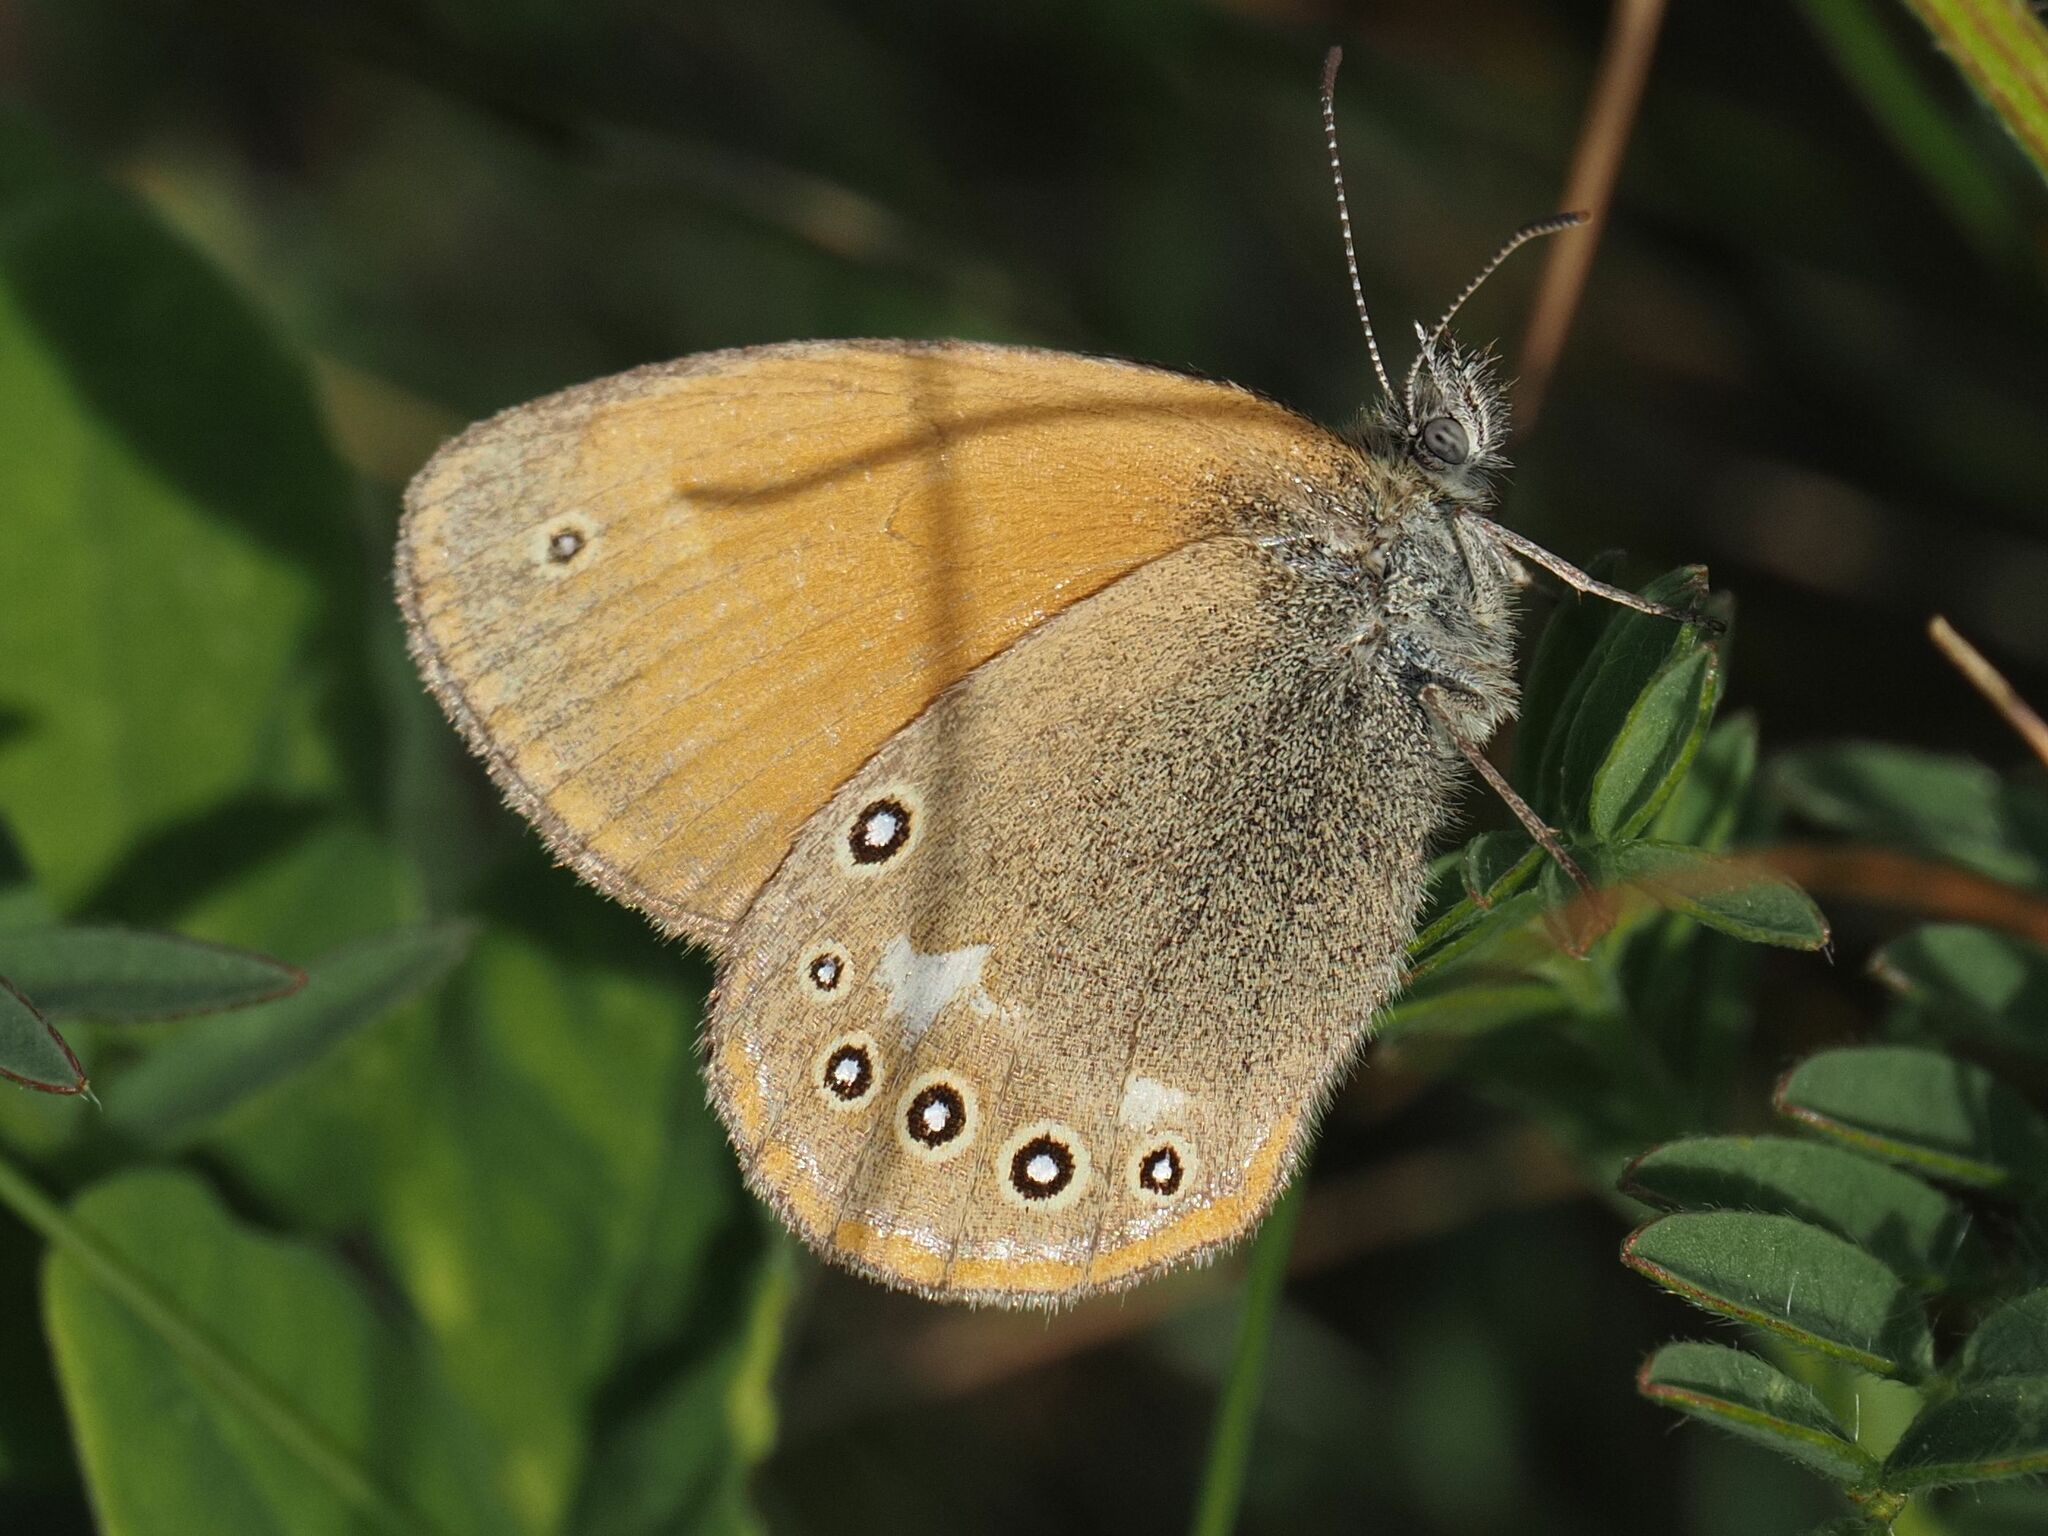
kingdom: Animalia
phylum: Arthropoda
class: Insecta
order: Lepidoptera
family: Nymphalidae
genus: Coenonympha
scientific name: Coenonympha iphis
